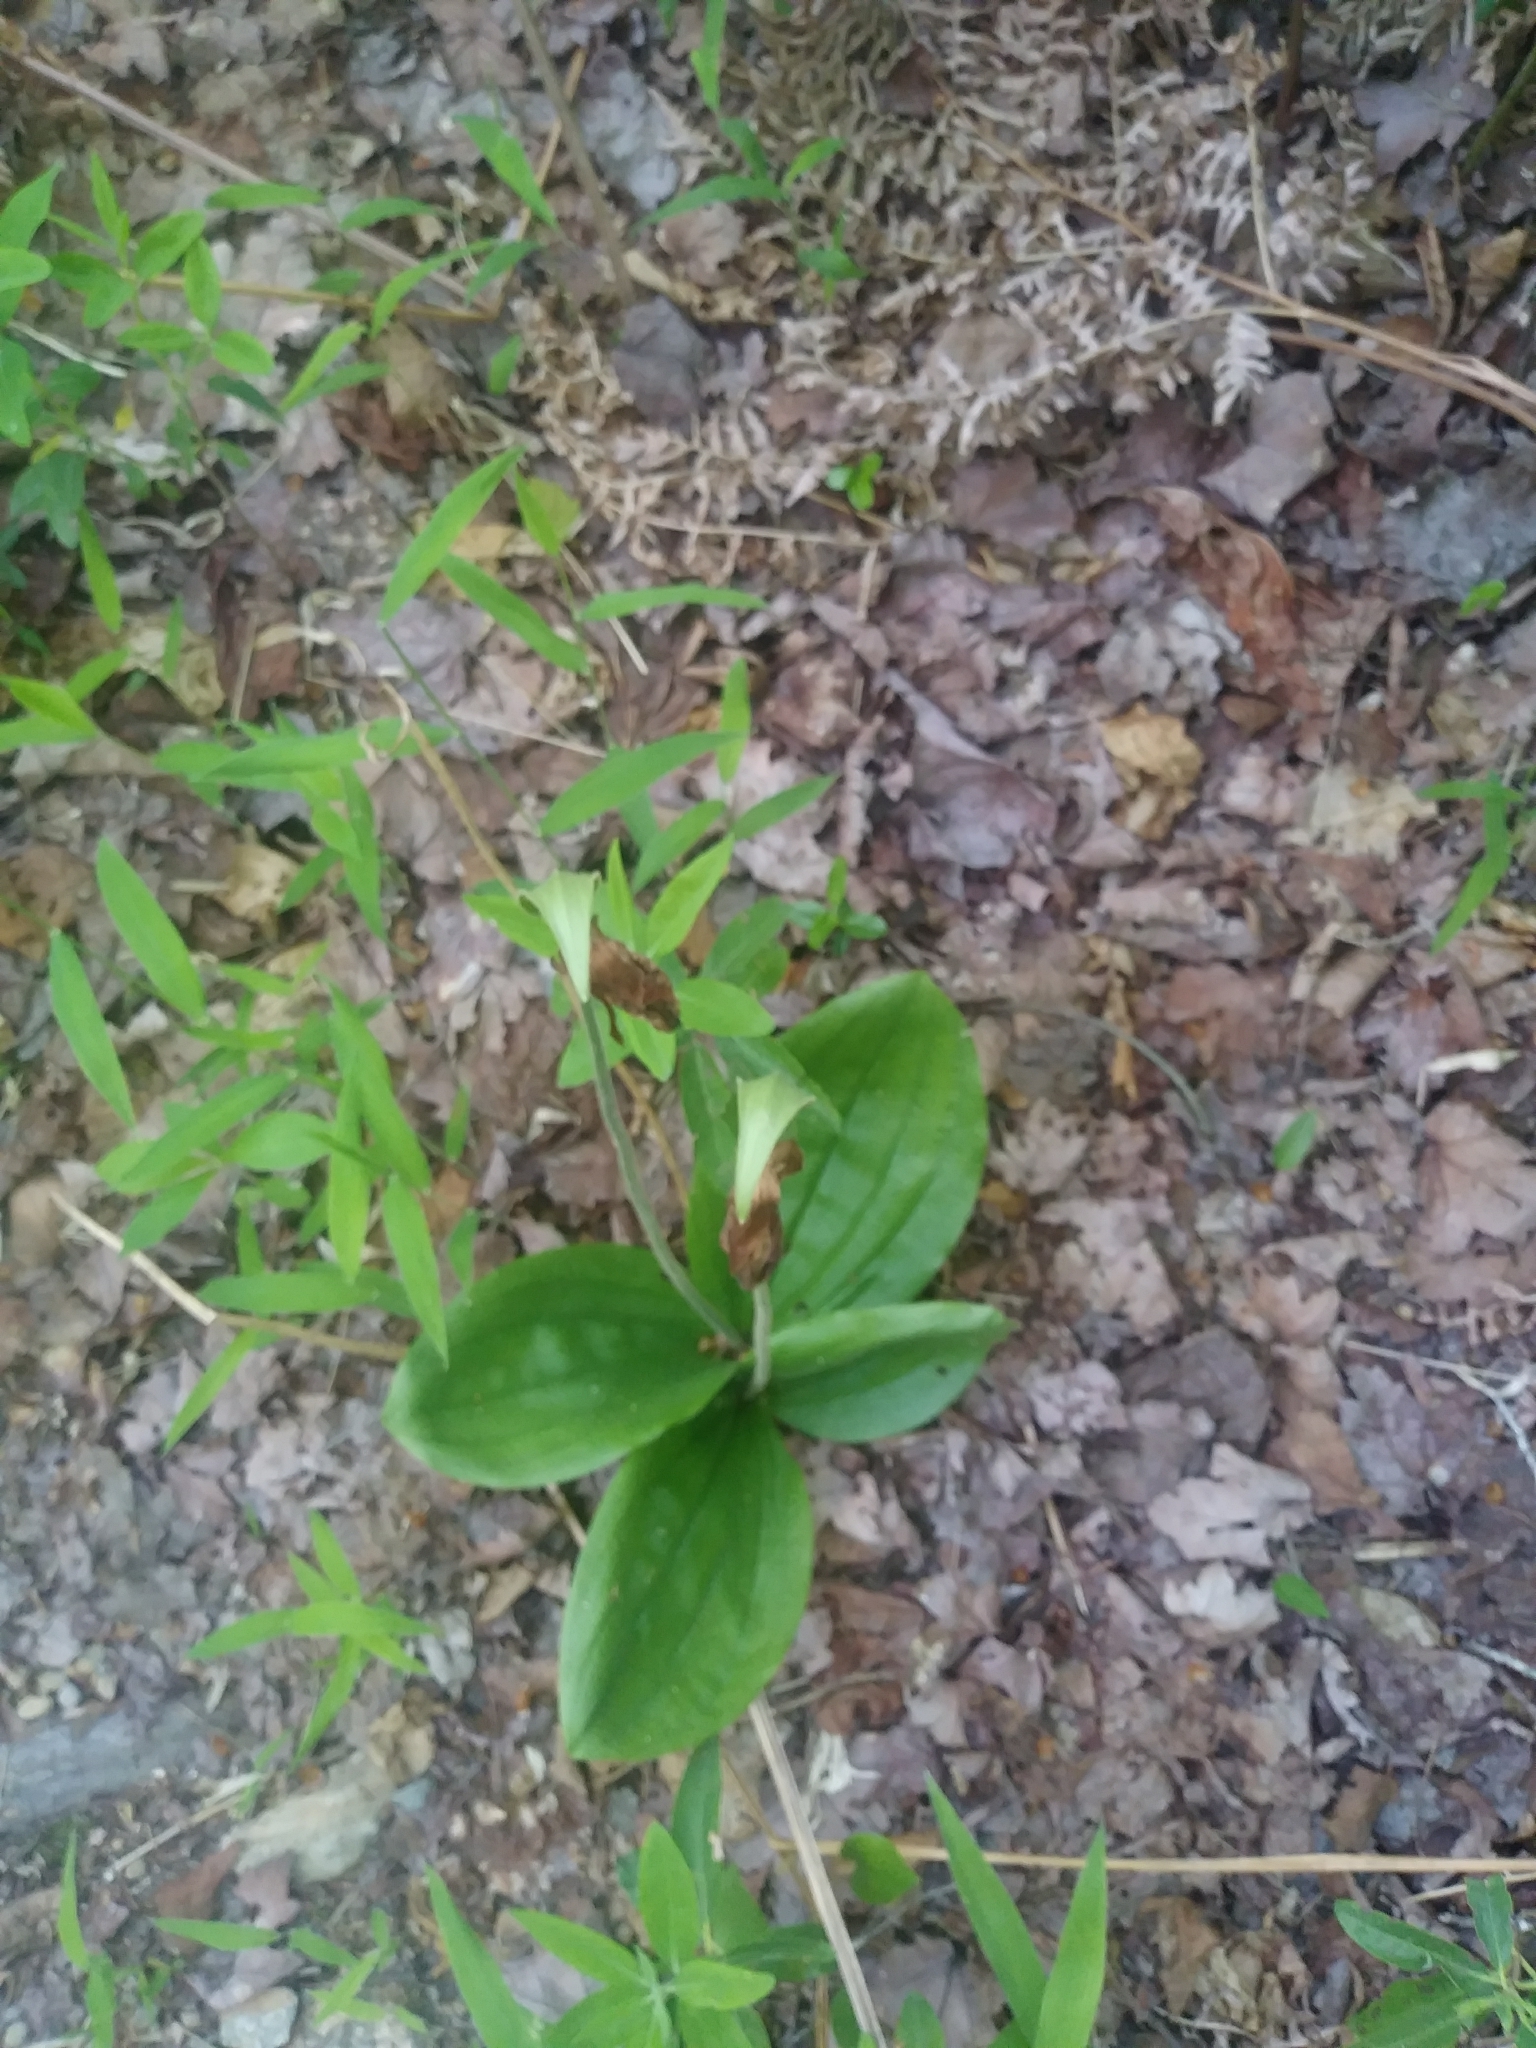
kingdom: Plantae
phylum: Tracheophyta
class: Liliopsida
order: Asparagales
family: Orchidaceae
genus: Cypripedium
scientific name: Cypripedium acaule
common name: Pink lady's-slipper
